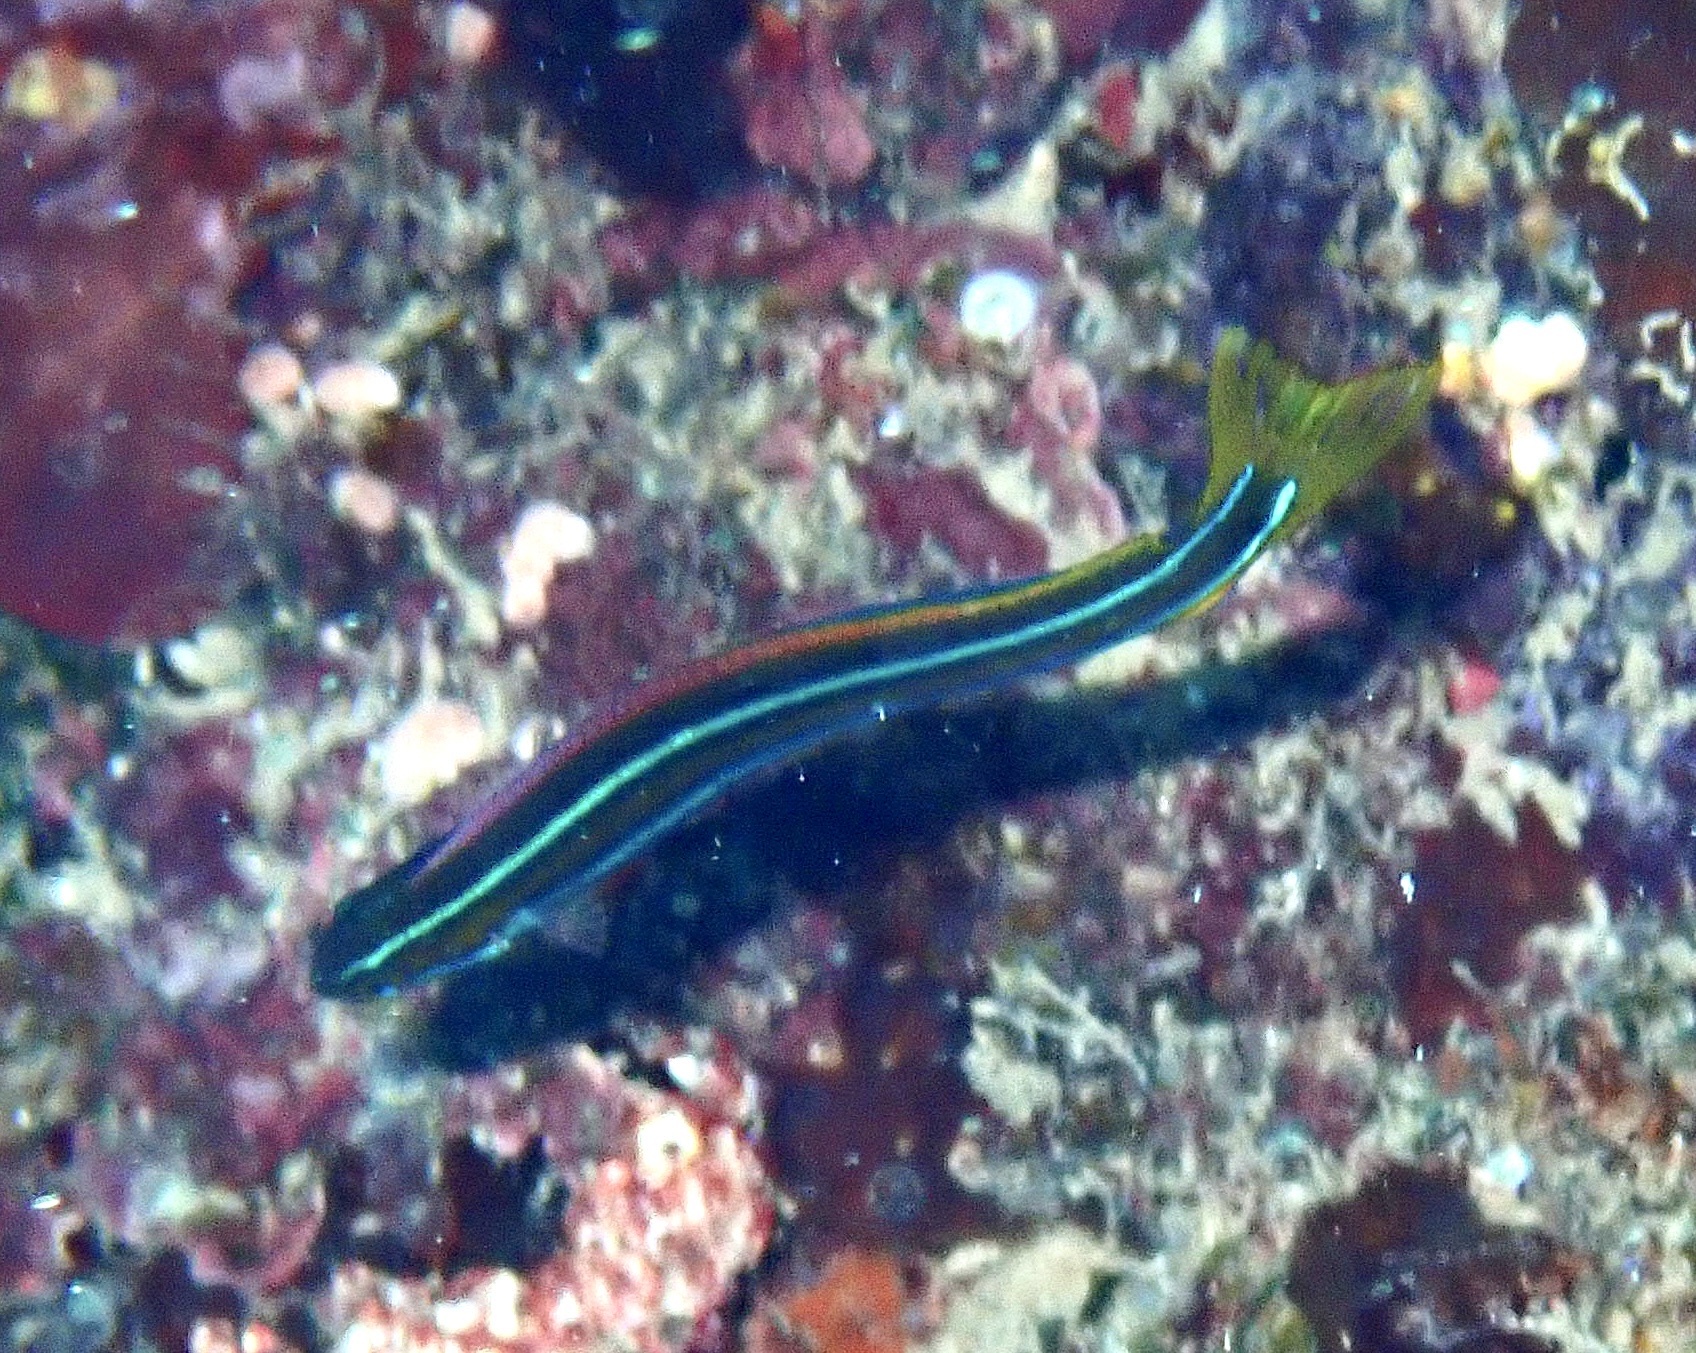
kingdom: Animalia
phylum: Chordata
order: Perciformes
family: Blenniidae
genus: Plagiotremus
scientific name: Plagiotremus rhinorhynchos
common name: Bluestriped fangblenny
